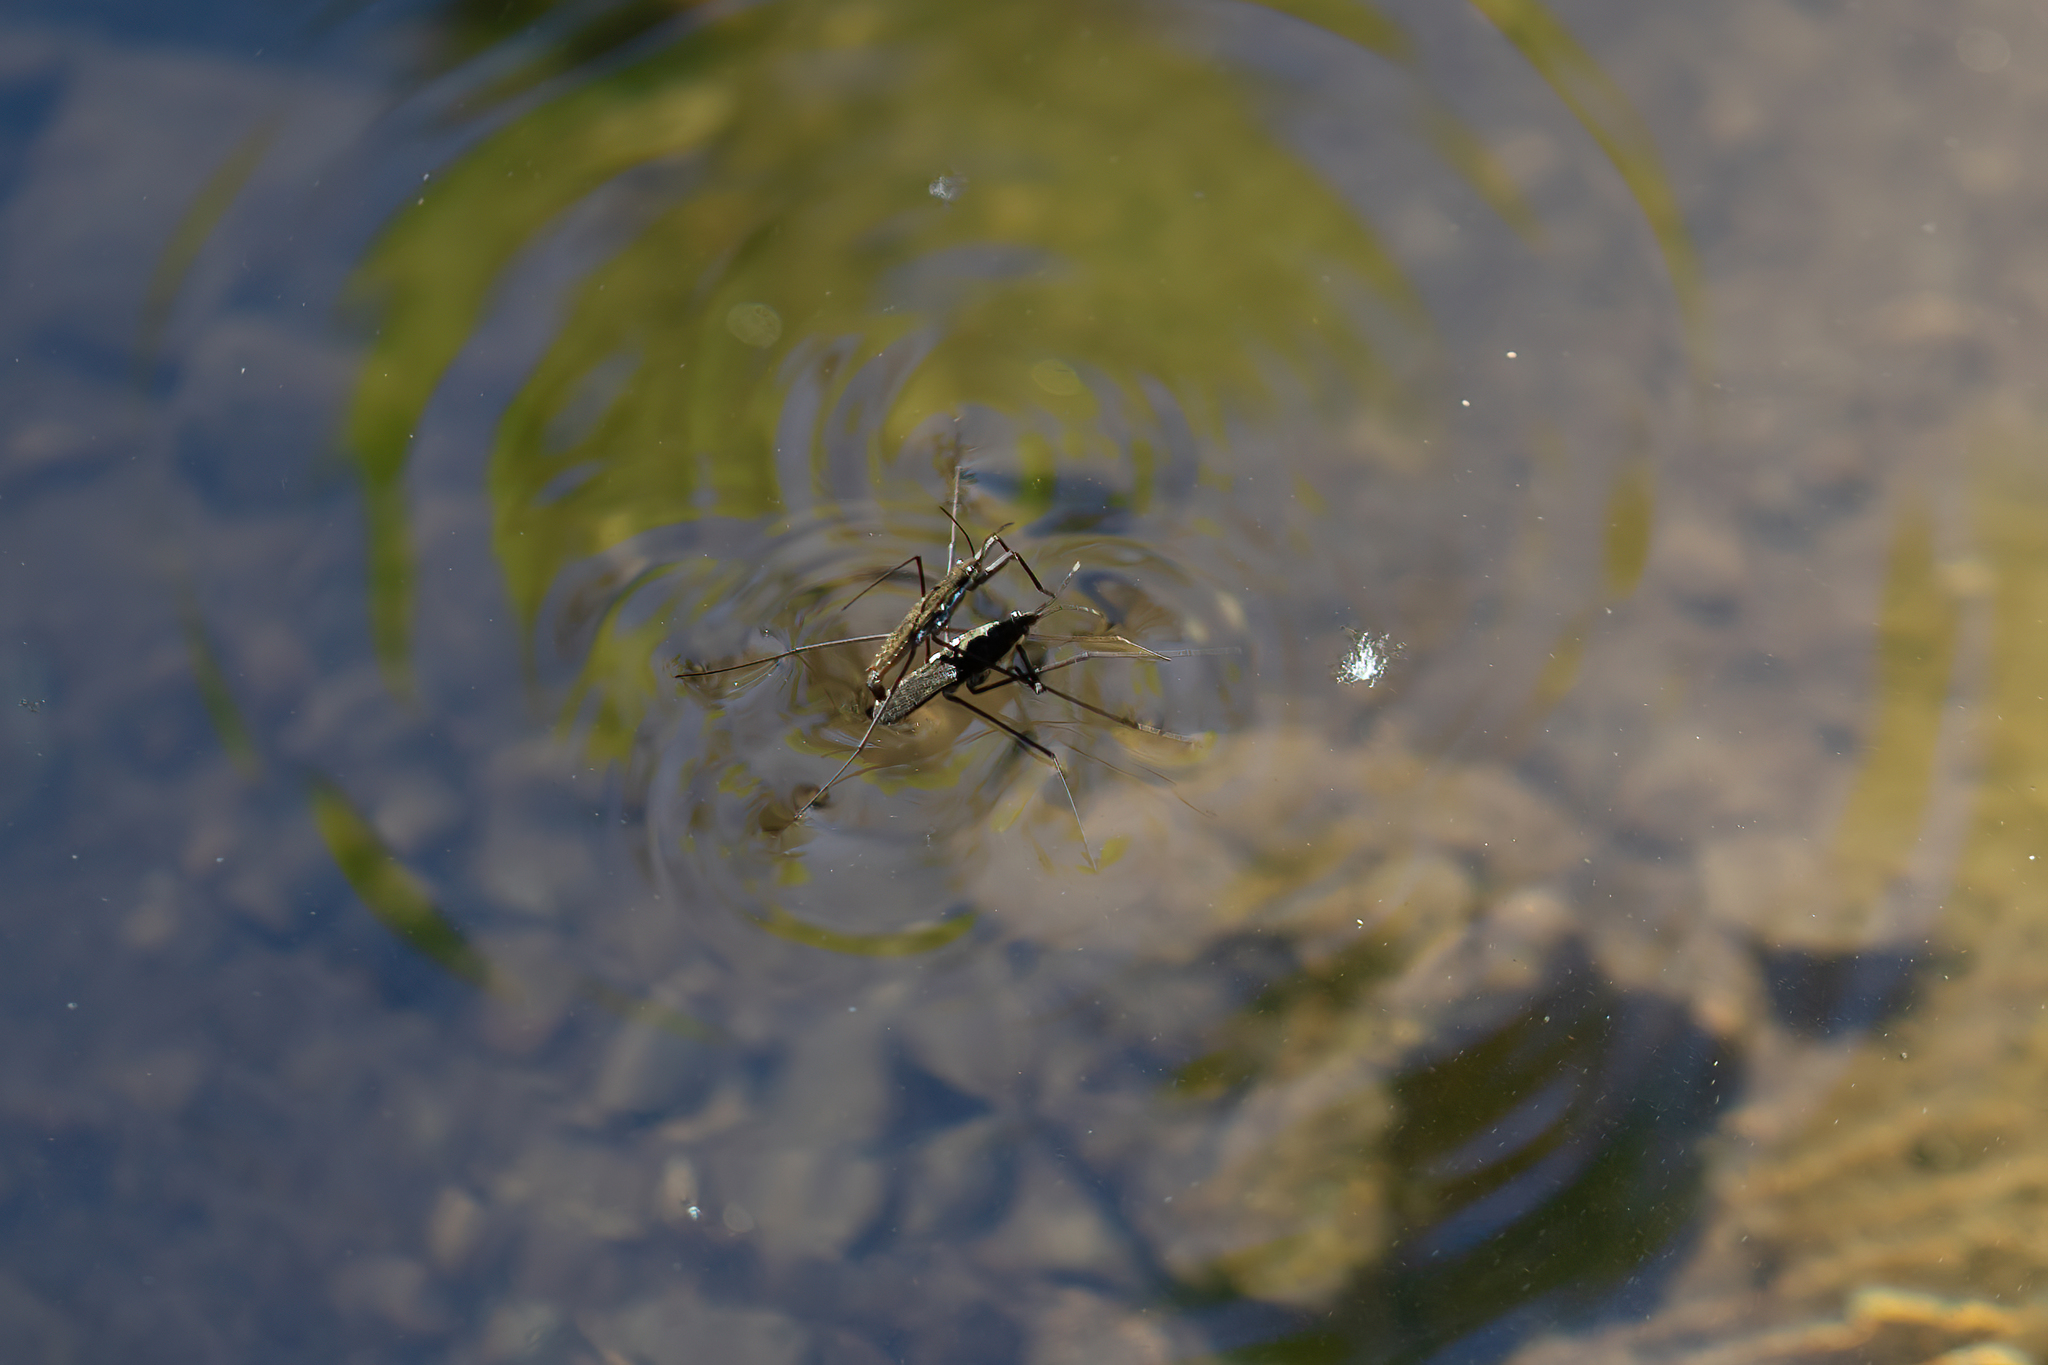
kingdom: Animalia
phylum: Arthropoda
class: Insecta
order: Hemiptera
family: Gerridae
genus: Aquarius
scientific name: Aquarius remigis
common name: Common water strider
